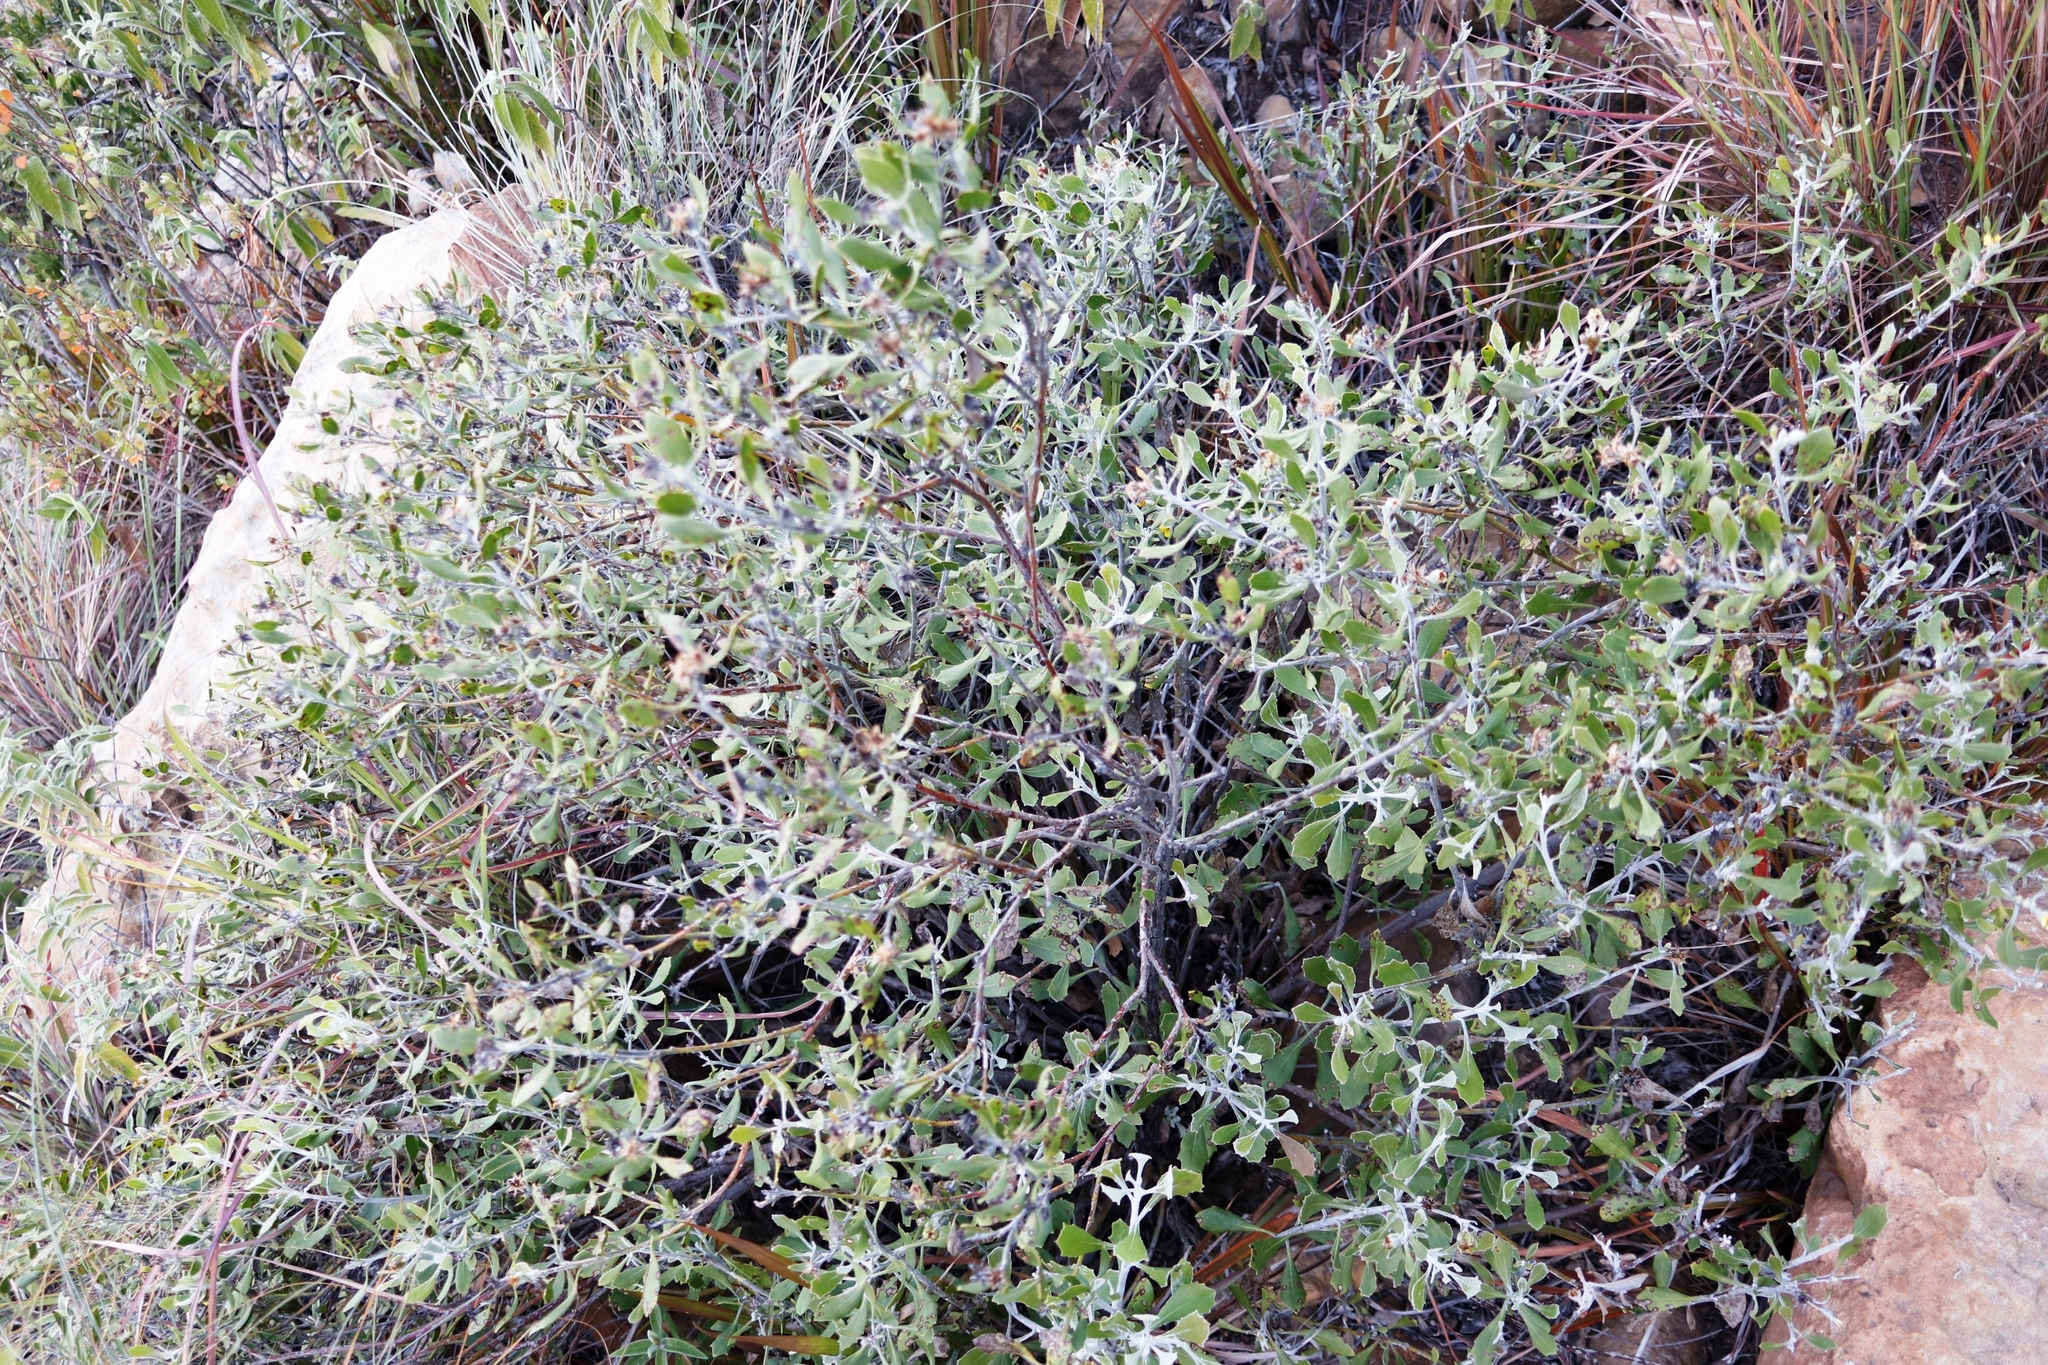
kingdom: Plantae
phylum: Tracheophyta
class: Magnoliopsida
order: Asterales
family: Asteraceae
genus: Osteospermum
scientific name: Osteospermum moniliferum
